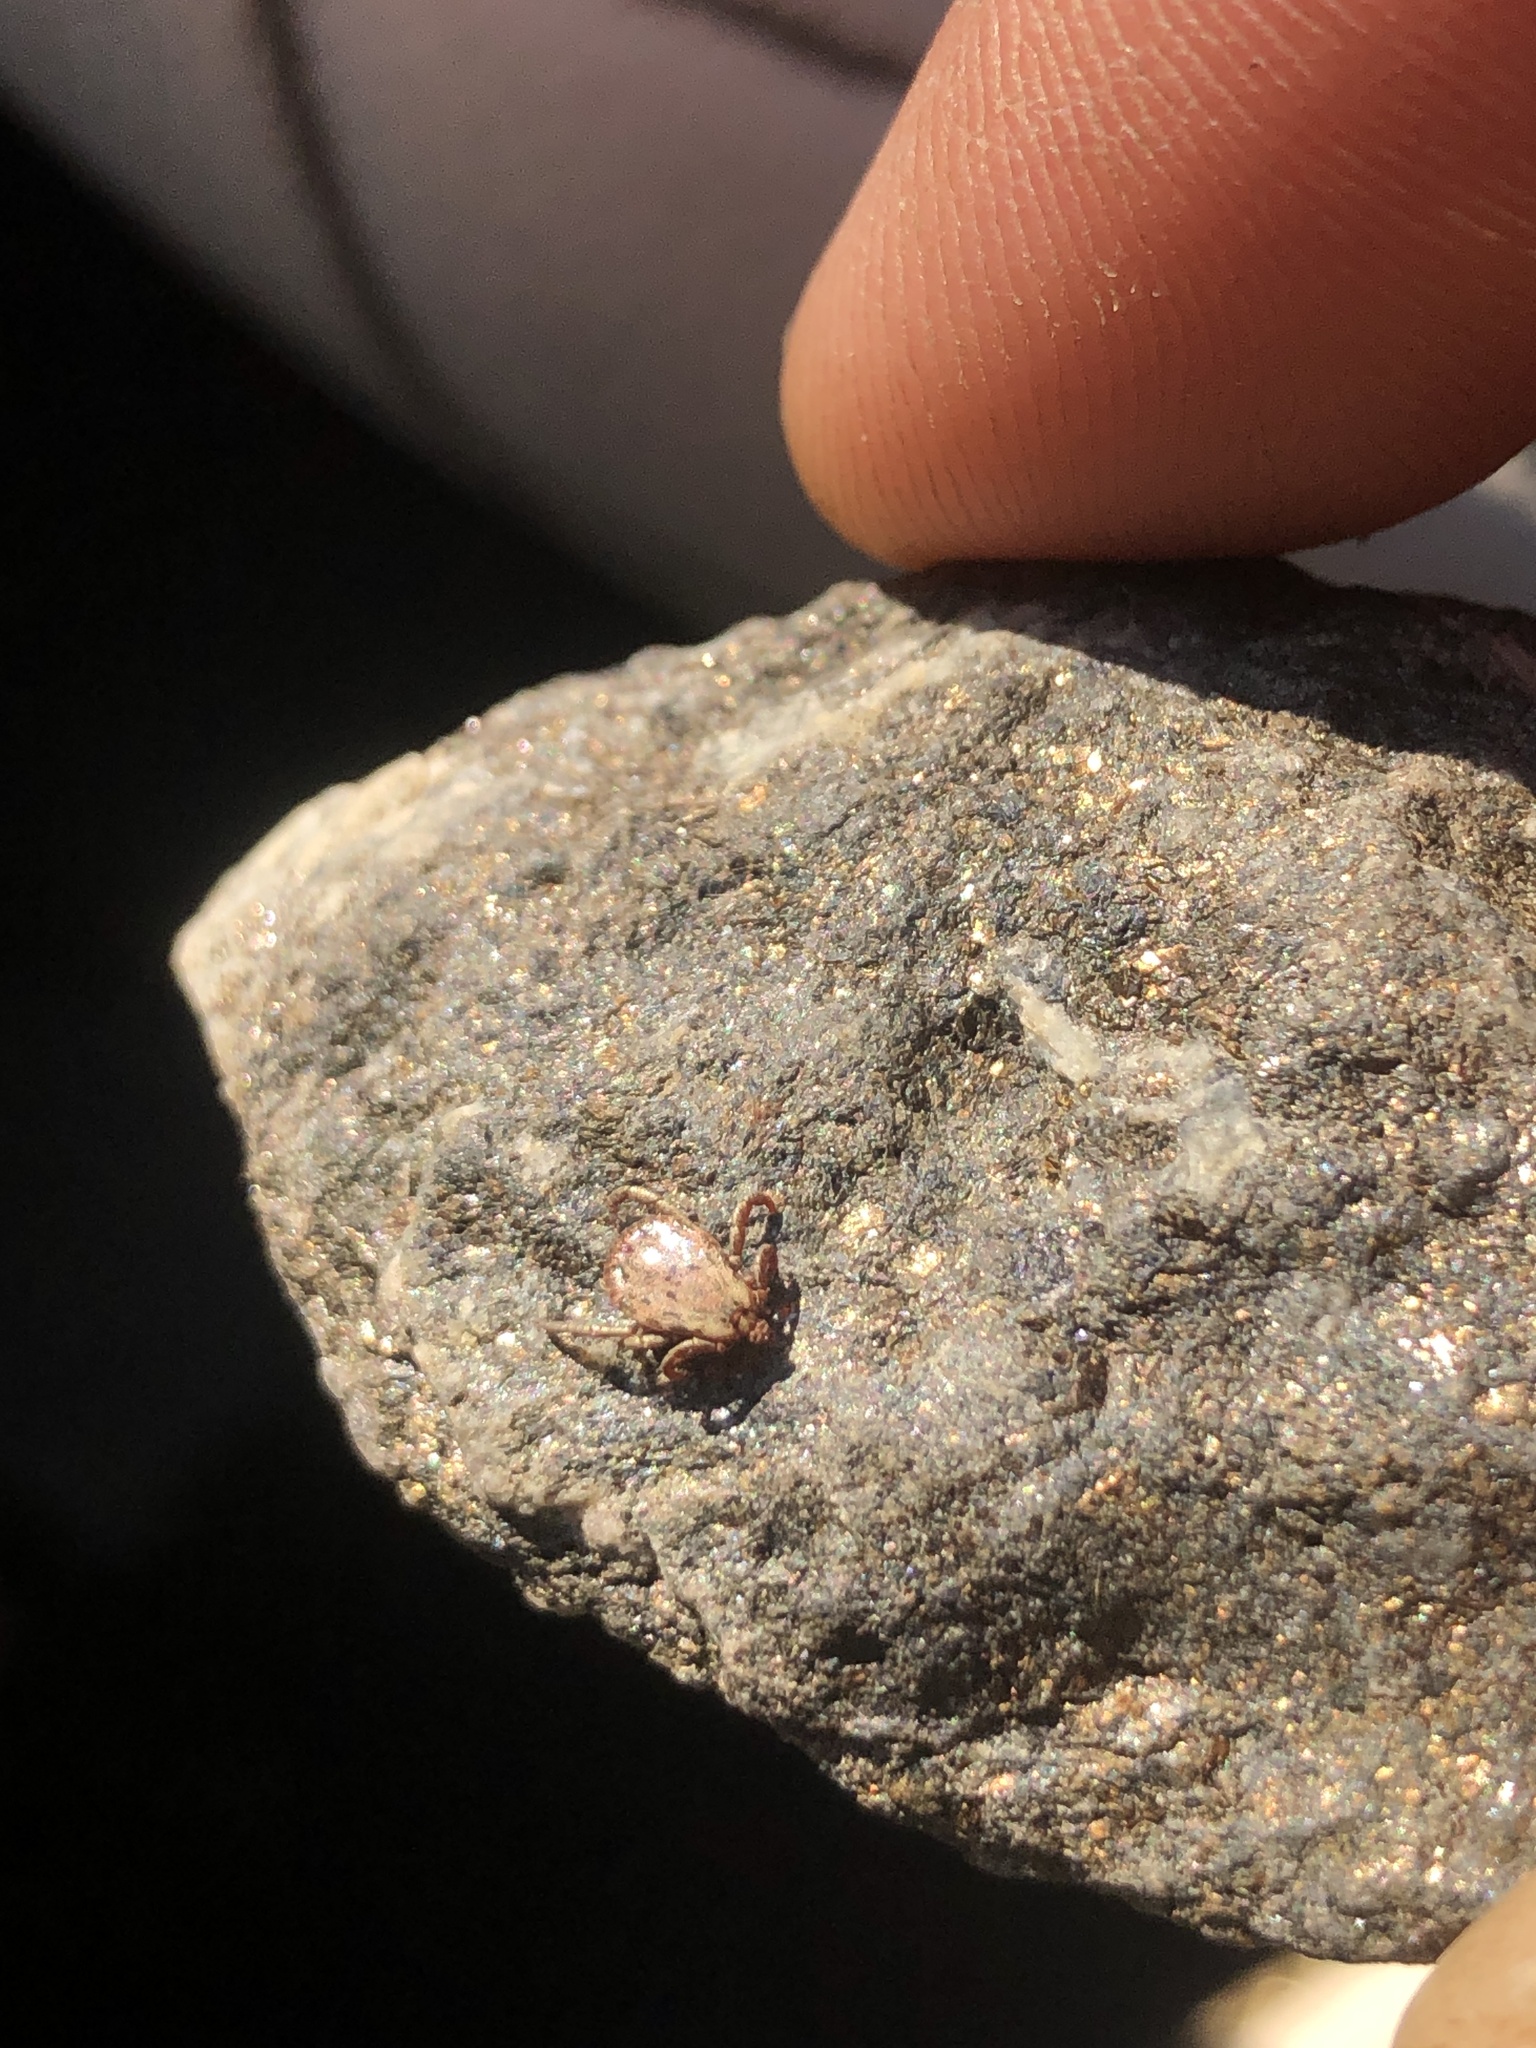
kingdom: Animalia
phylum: Arthropoda
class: Arachnida
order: Ixodida
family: Ixodidae
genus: Dermacentor
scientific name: Dermacentor occidentalis
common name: Net tick
